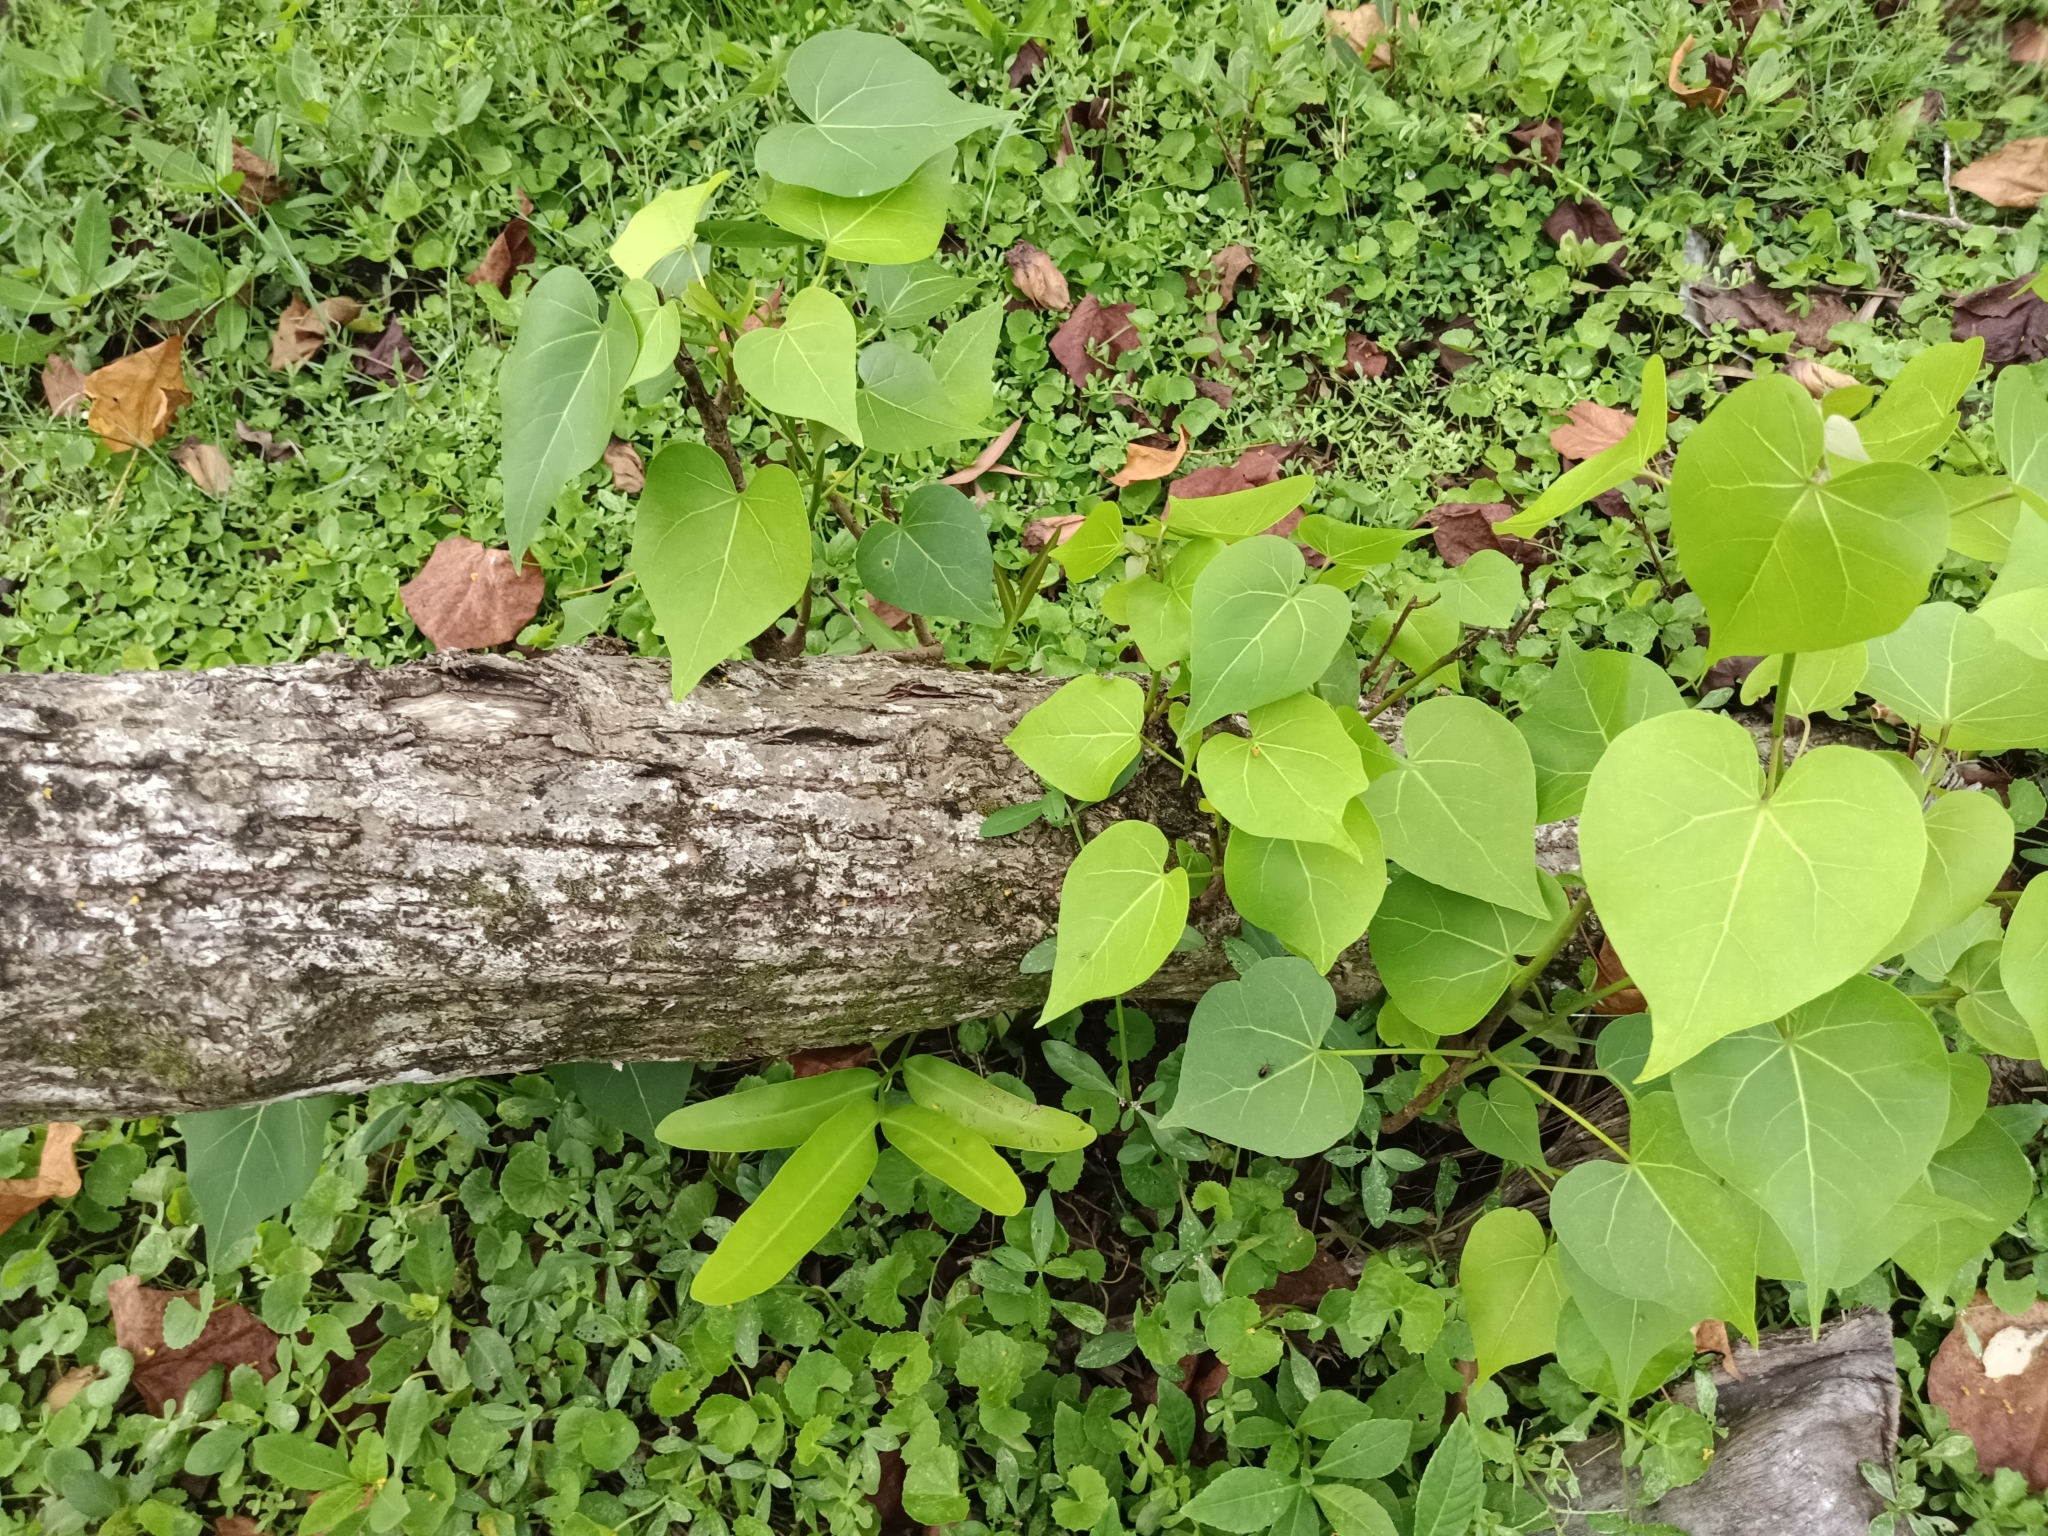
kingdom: Plantae
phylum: Tracheophyta
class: Magnoliopsida
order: Malvales
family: Malvaceae
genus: Thespesia
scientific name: Thespesia populnea
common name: Seaside mahoe
